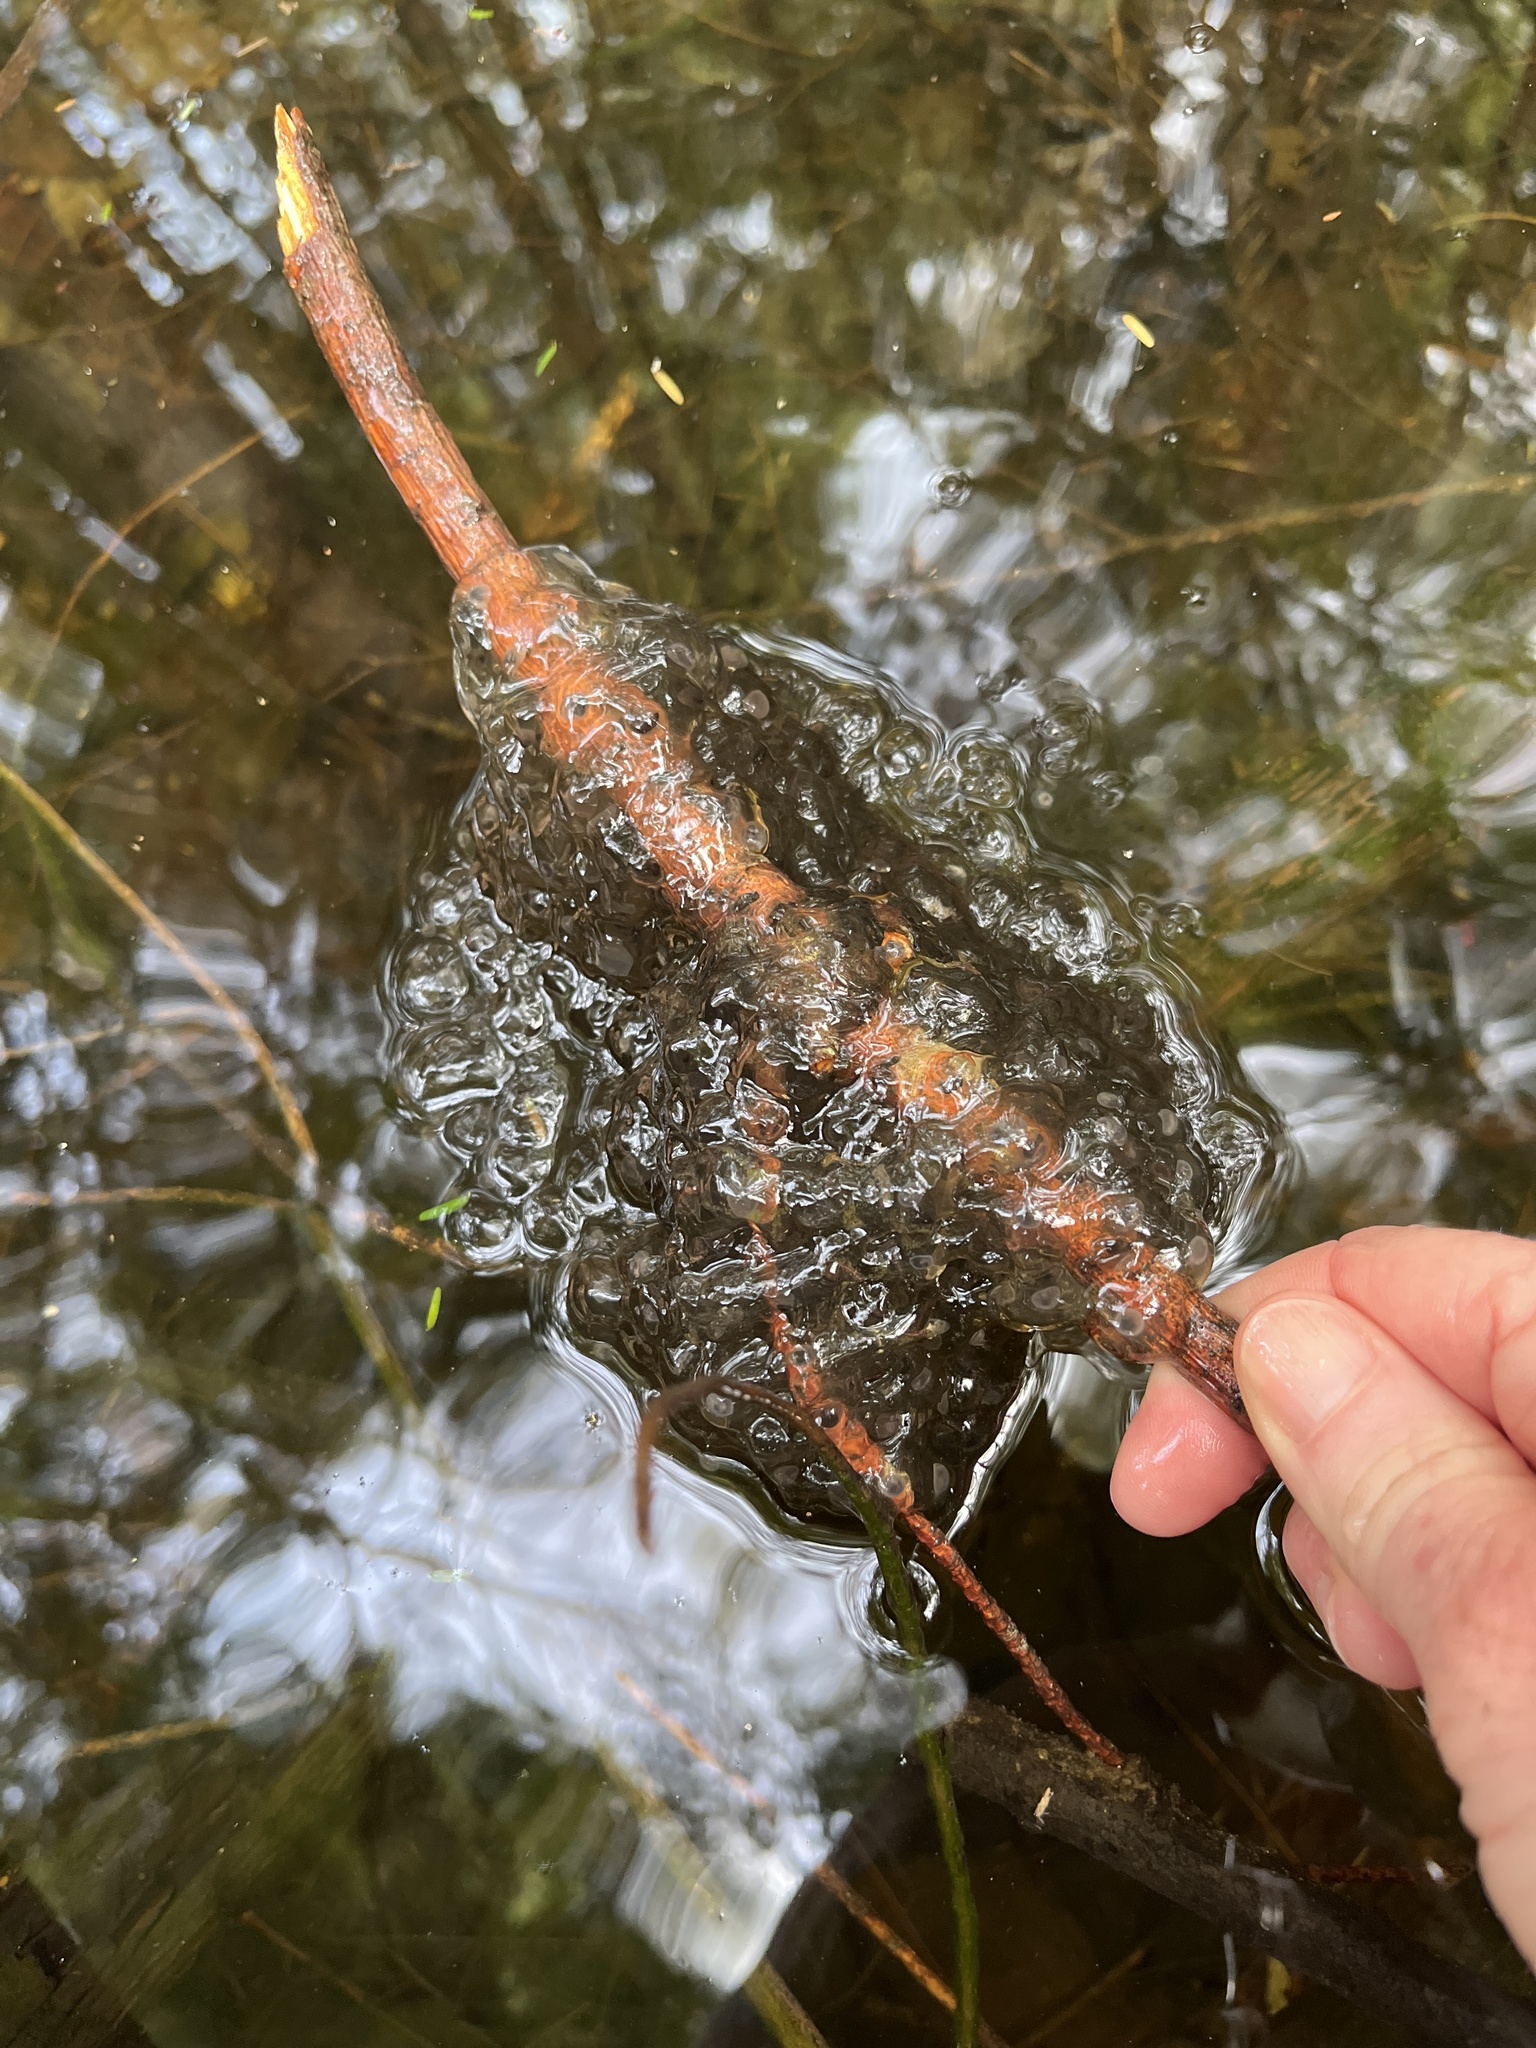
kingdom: Animalia
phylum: Chordata
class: Amphibia
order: Anura
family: Ranidae
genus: Lithobates
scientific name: Lithobates sylvaticus
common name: Wood frog
